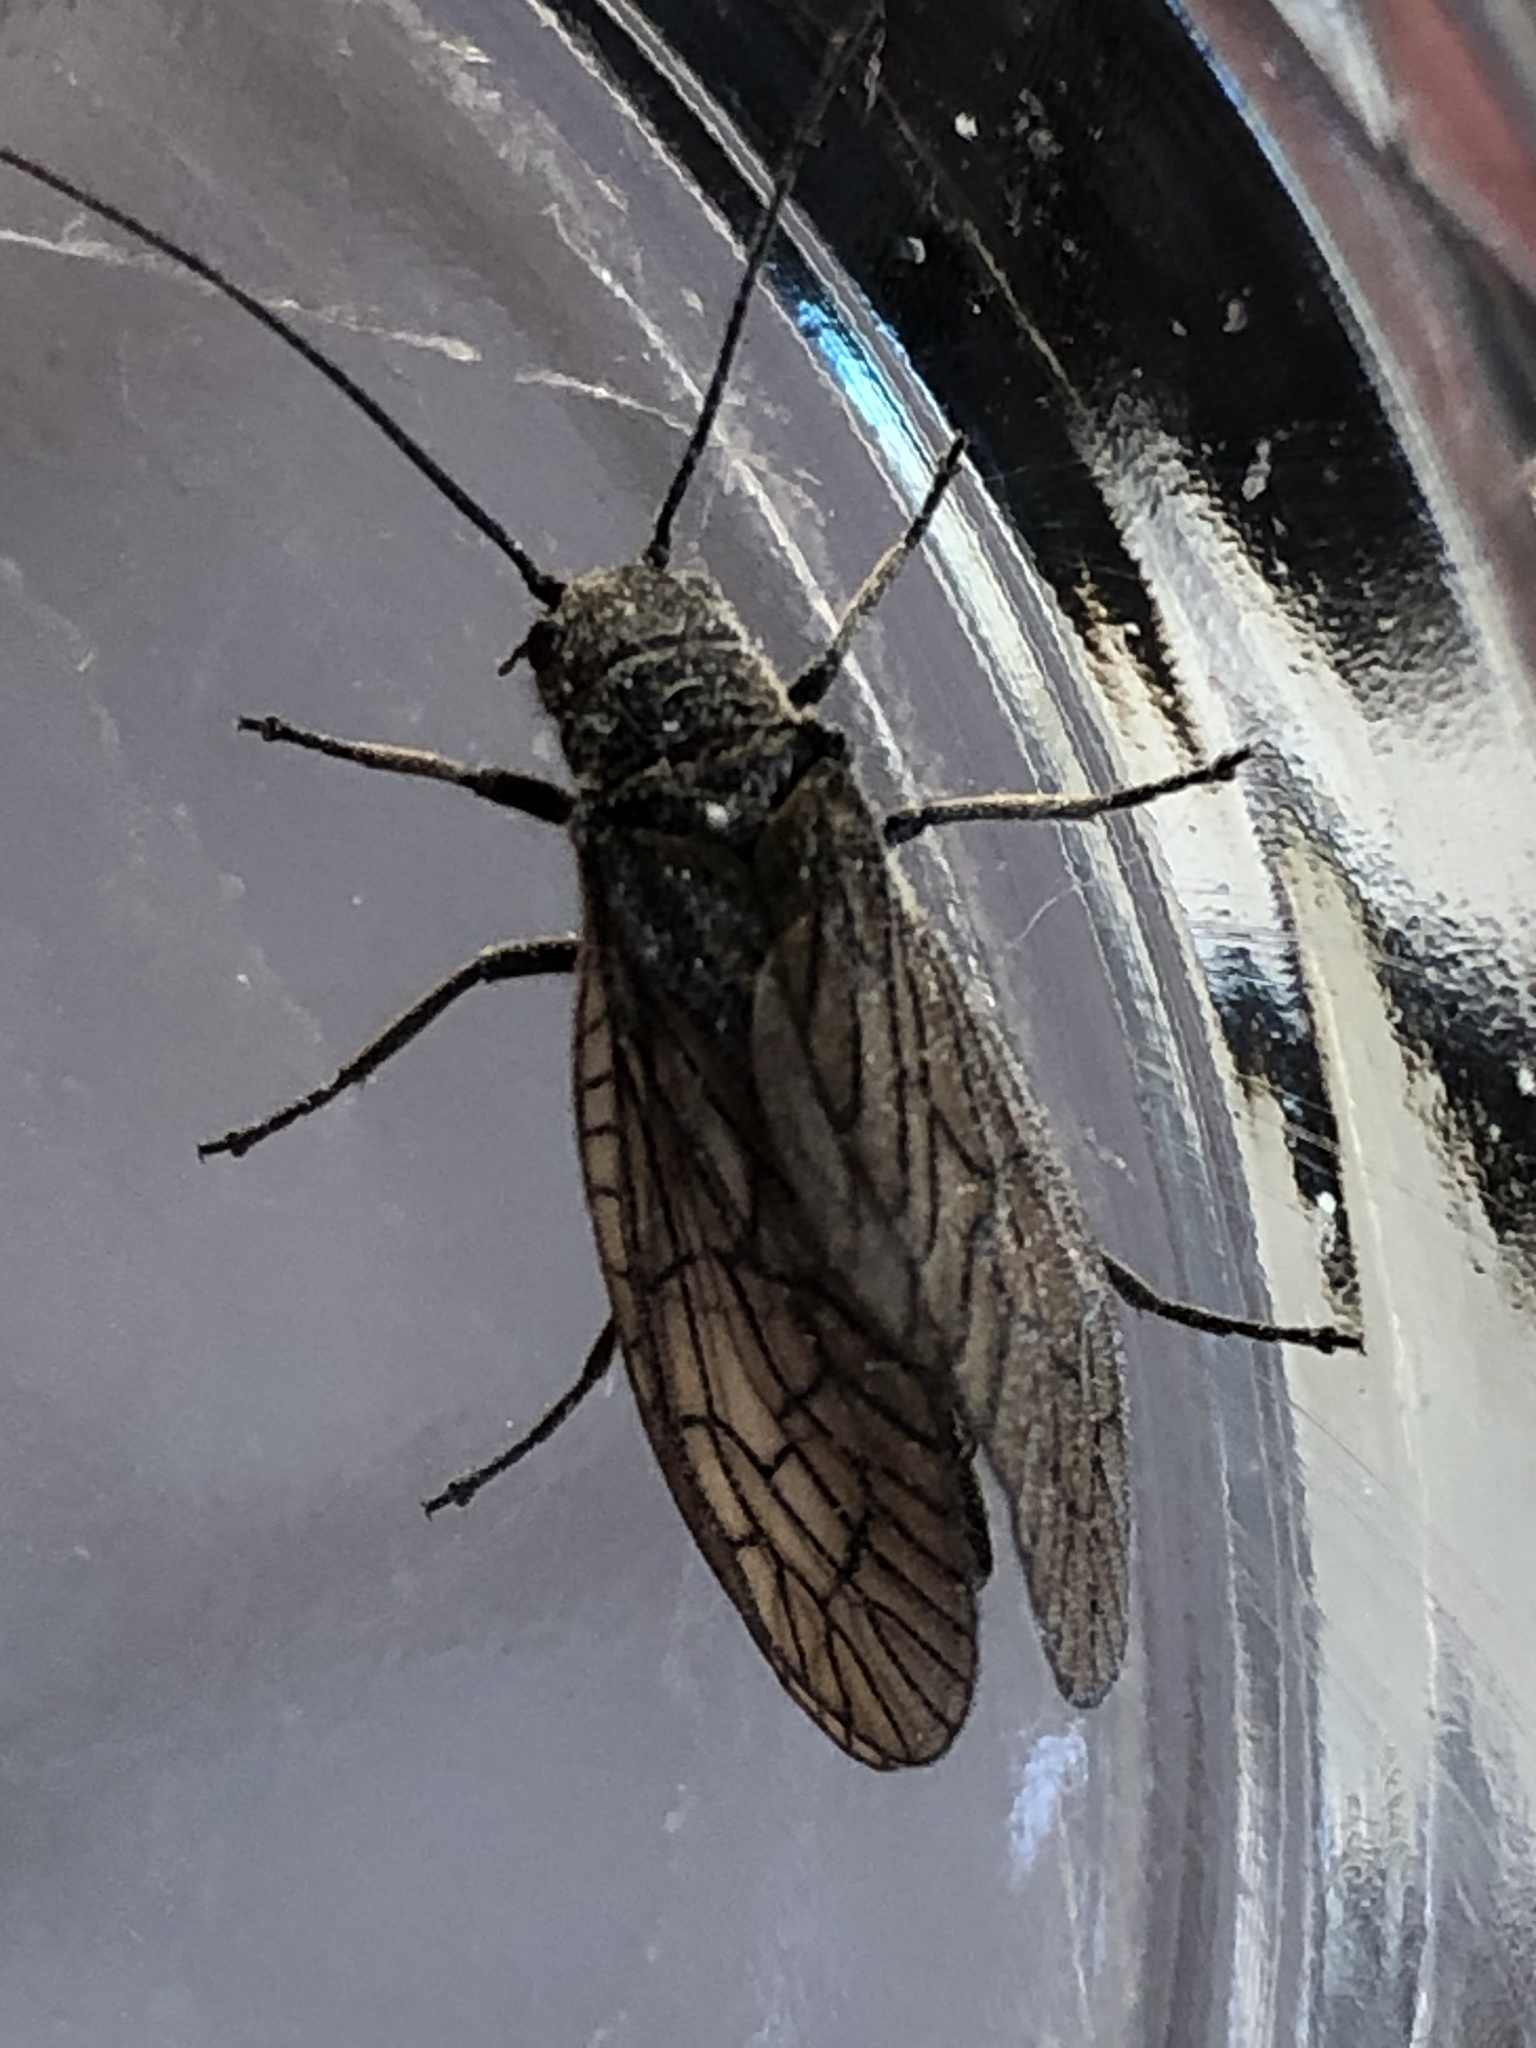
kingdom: Animalia
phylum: Arthropoda
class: Insecta
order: Megaloptera
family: Sialidae
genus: Sialis
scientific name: Sialis
